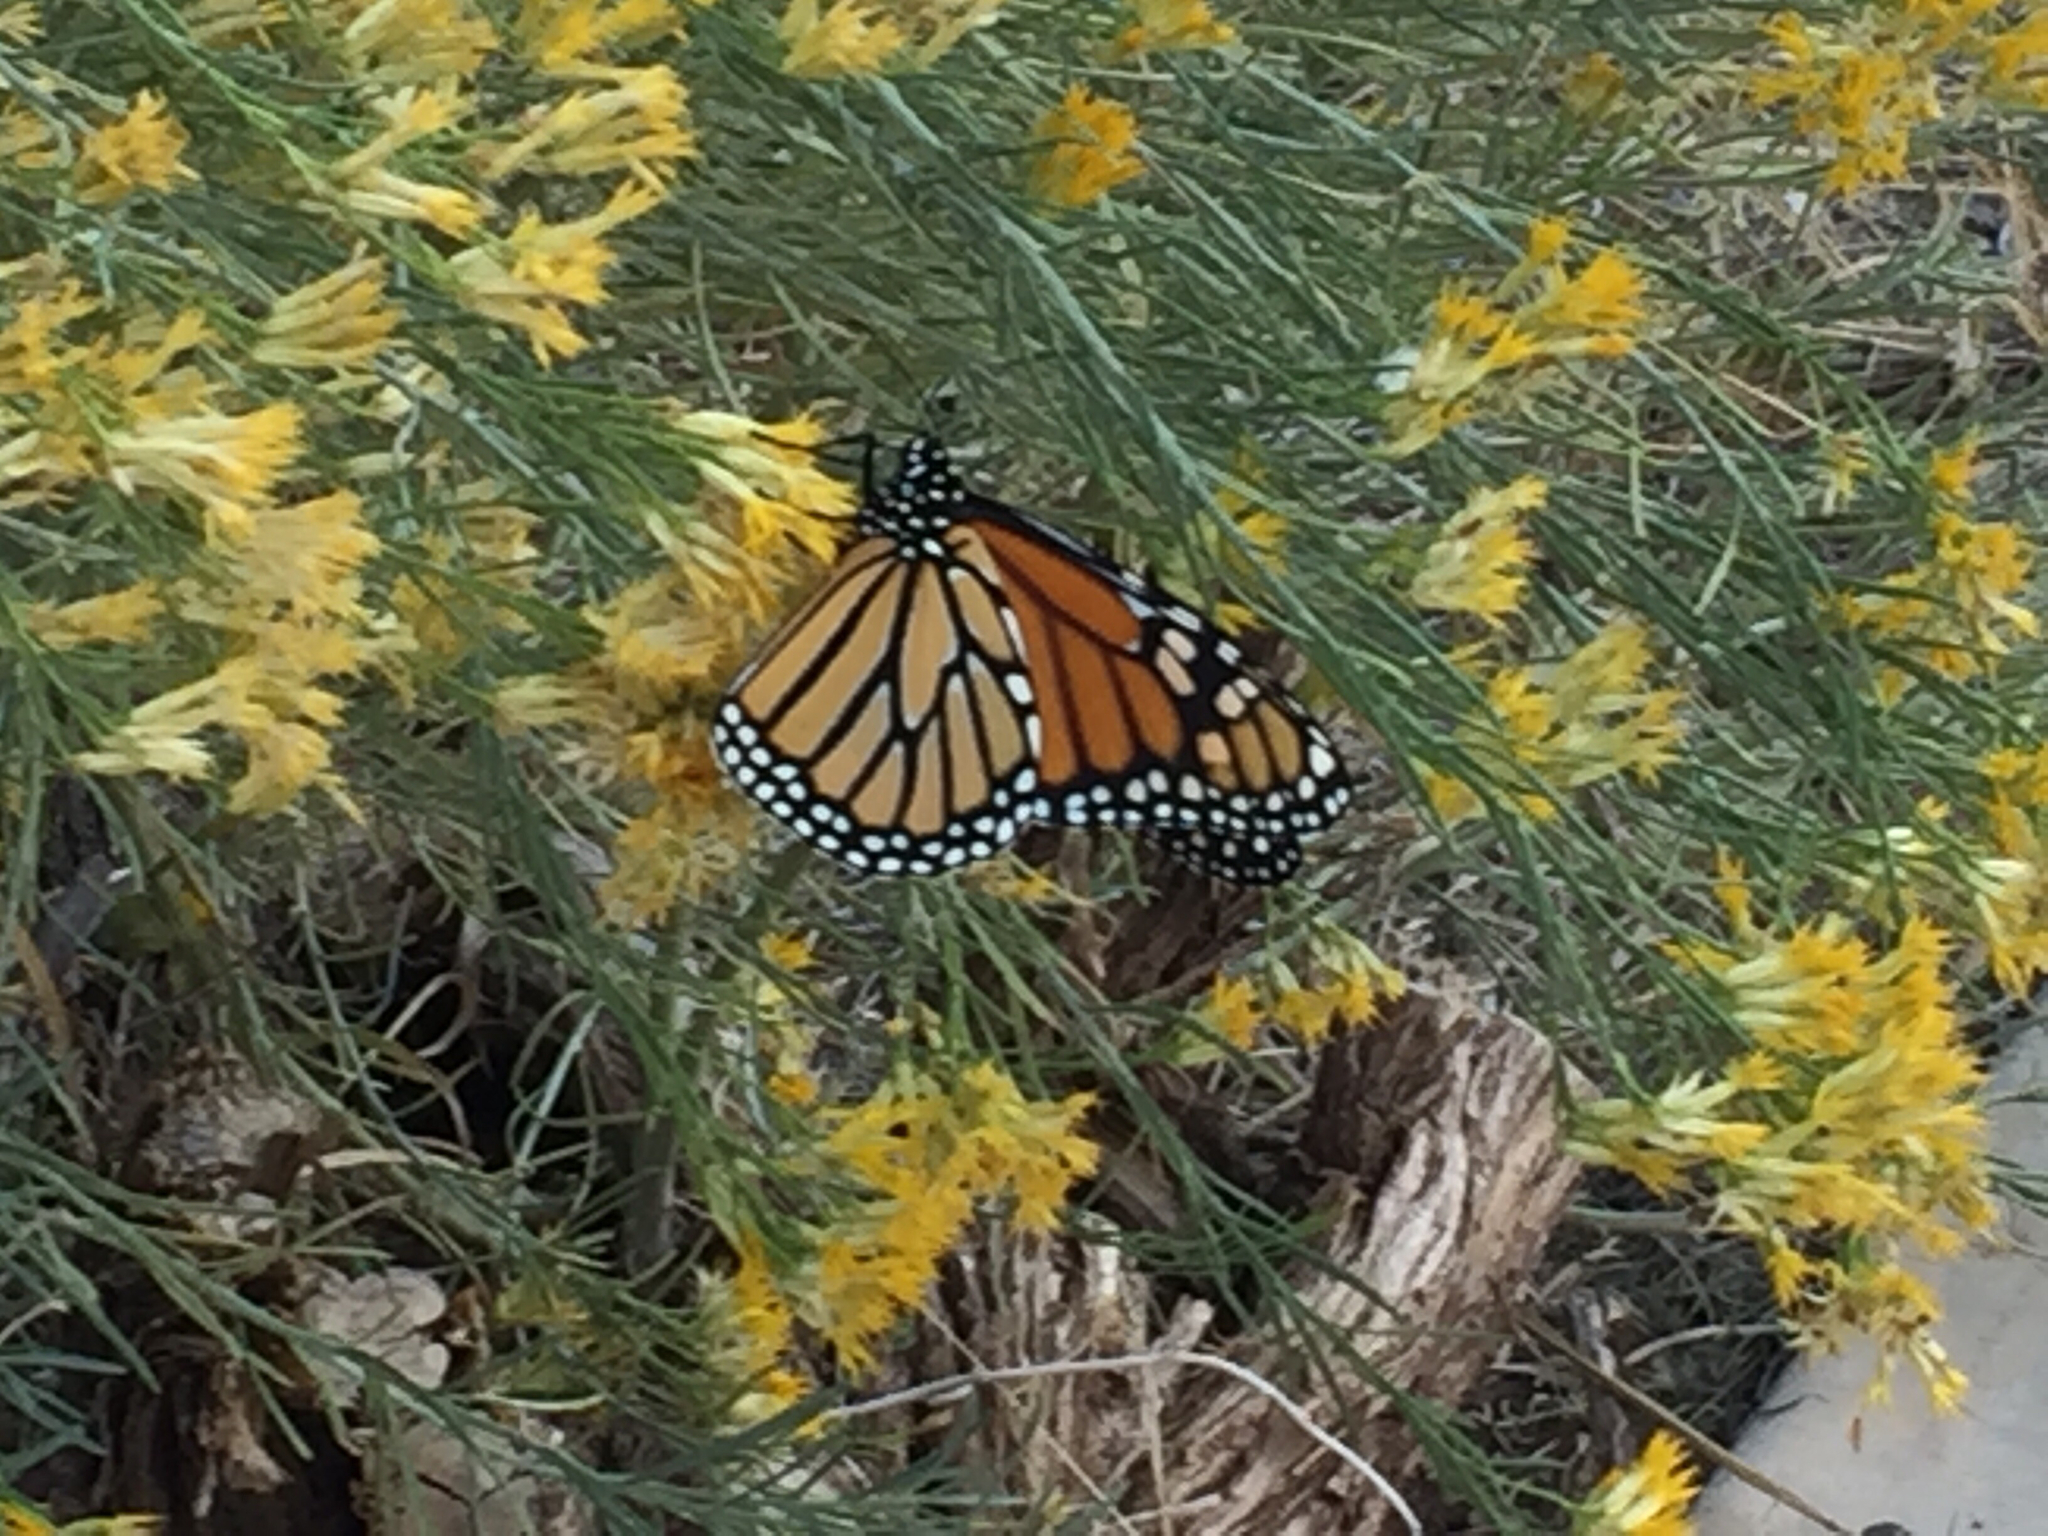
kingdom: Animalia
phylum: Arthropoda
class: Insecta
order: Lepidoptera
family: Nymphalidae
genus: Danaus
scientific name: Danaus plexippus
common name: Monarch
